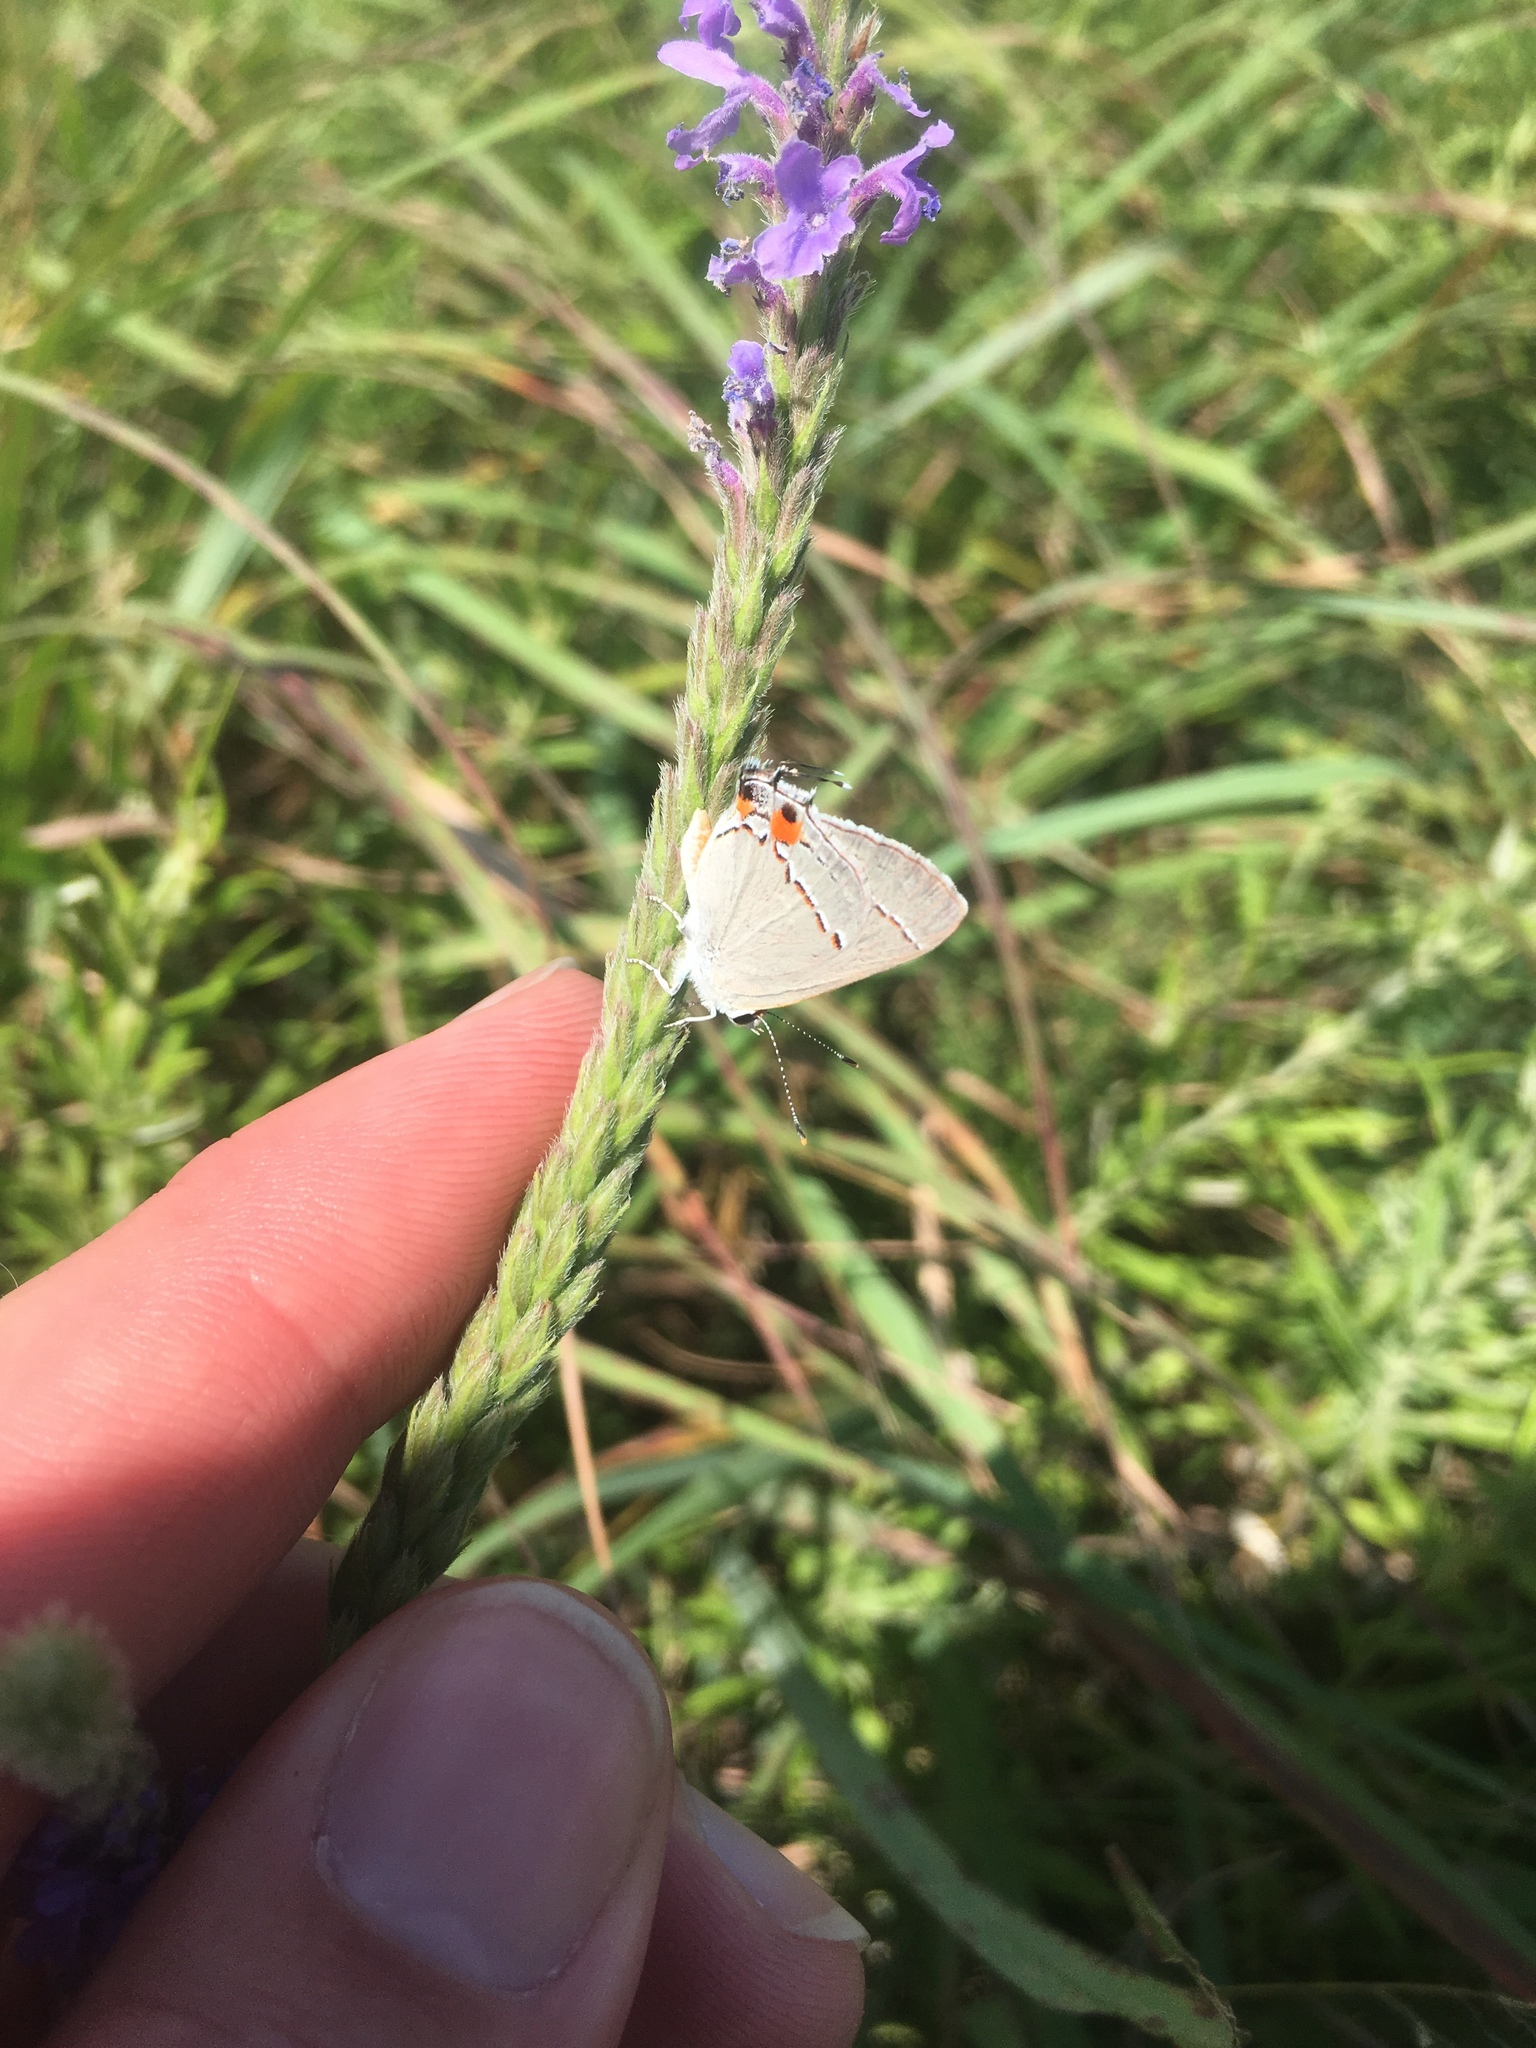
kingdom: Animalia
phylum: Arthropoda
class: Insecta
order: Lepidoptera
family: Lycaenidae
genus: Strymon
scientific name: Strymon melinus
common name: Gray hairstreak
